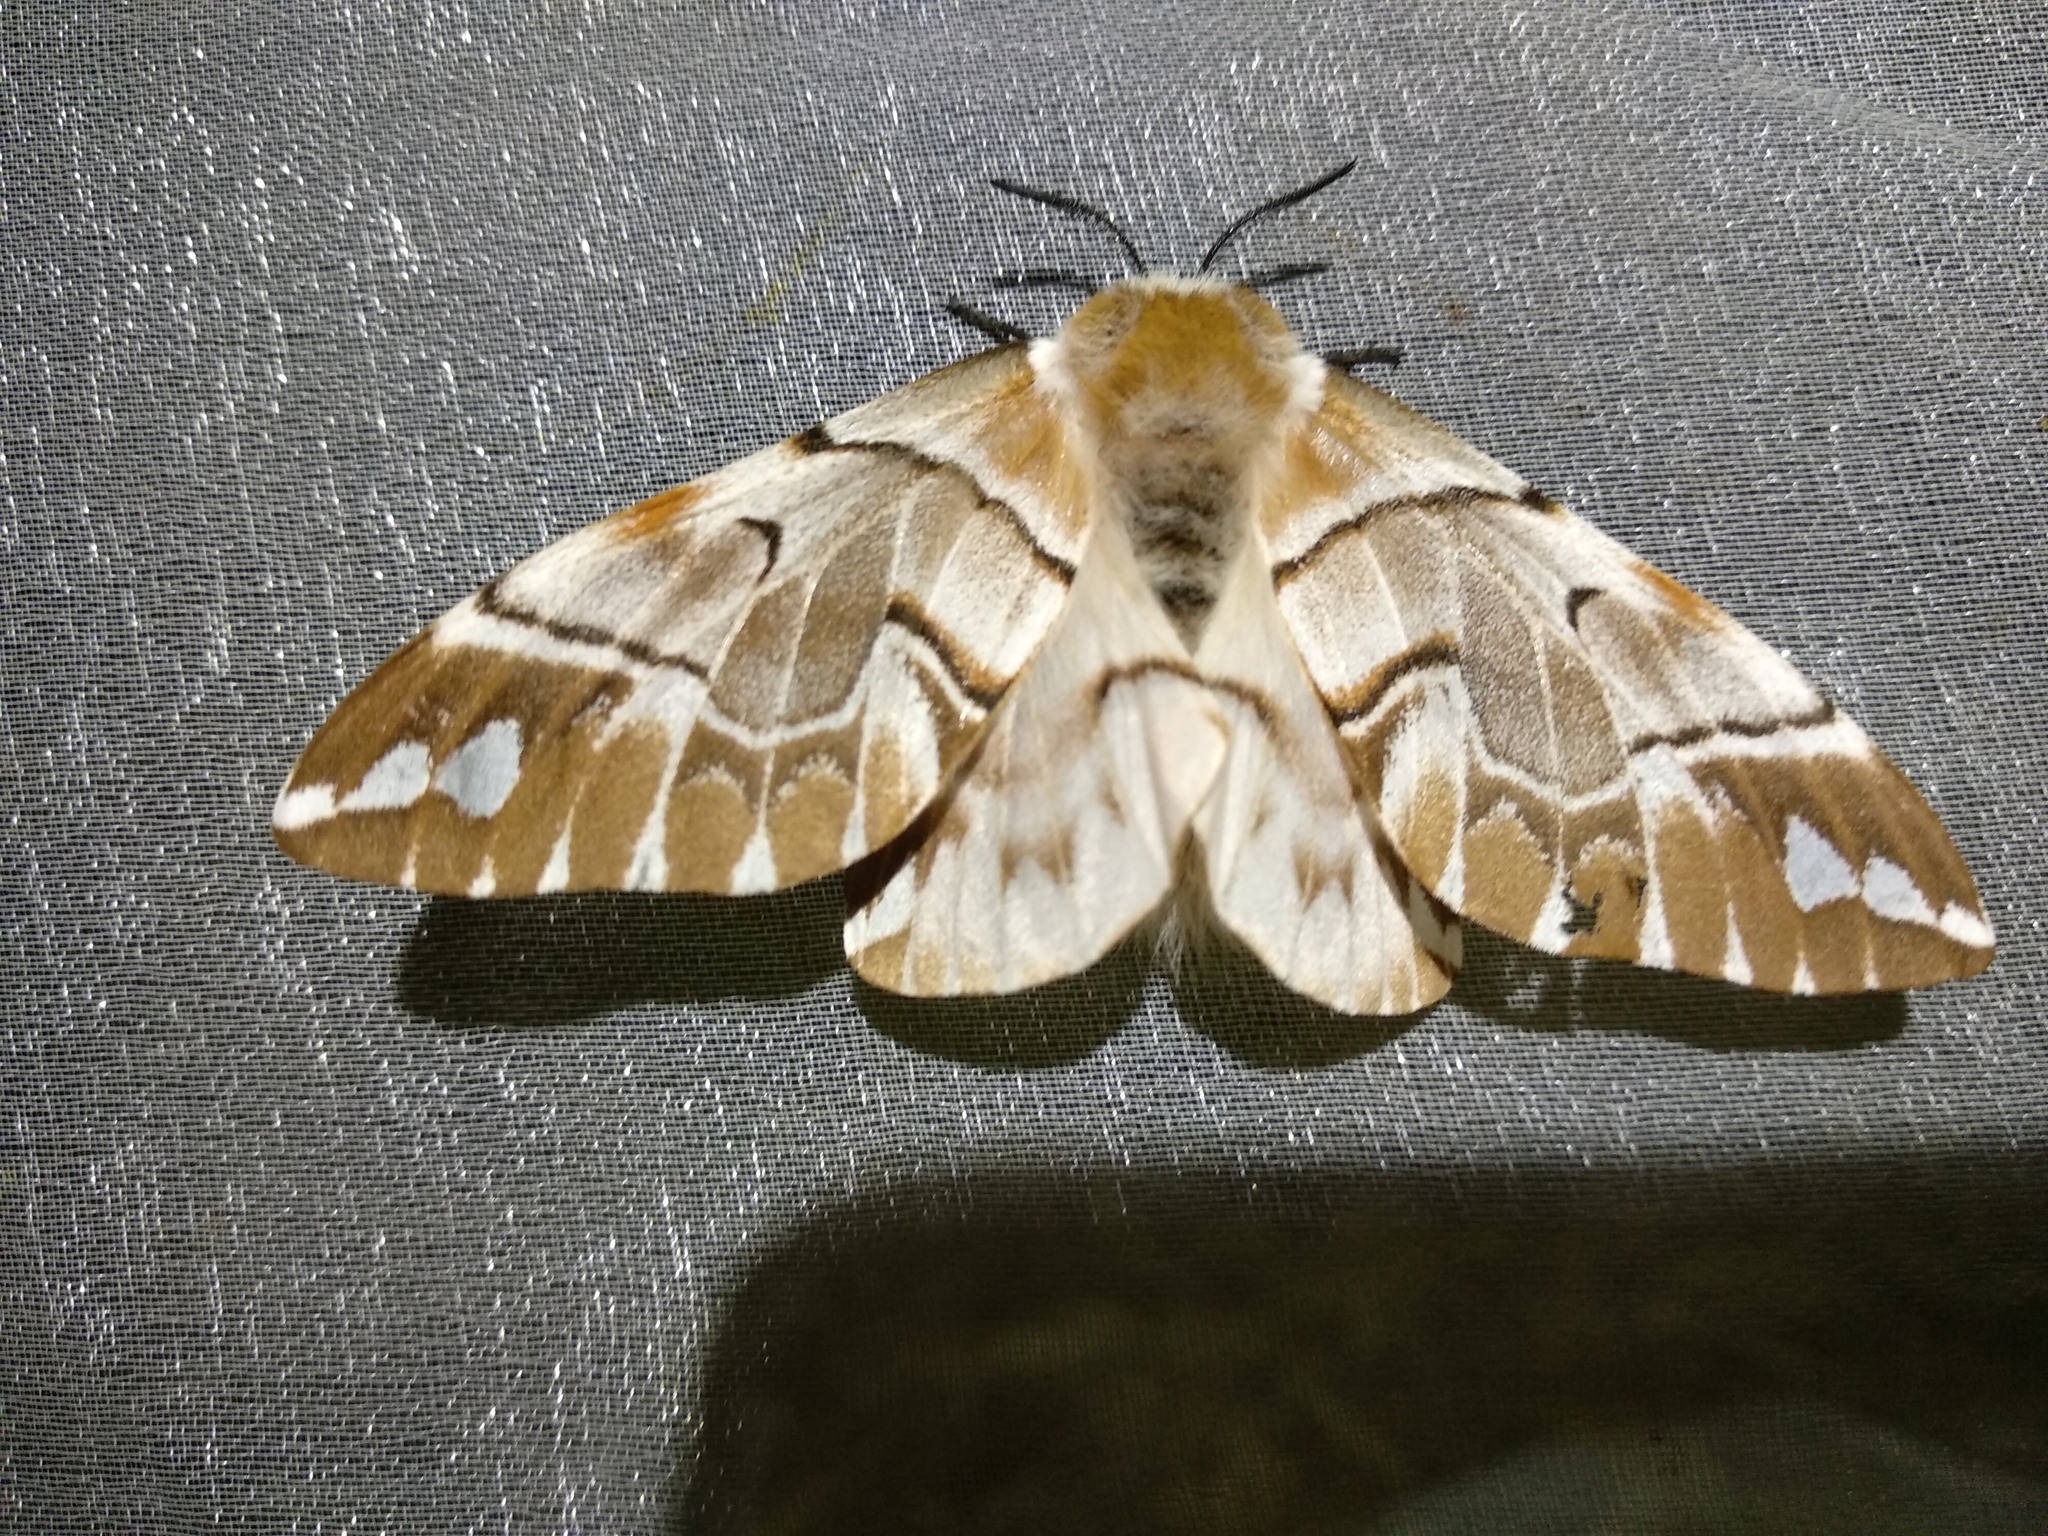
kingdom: Animalia
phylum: Arthropoda
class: Insecta
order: Lepidoptera
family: Endromidae
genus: Endromis
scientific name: Endromis versicolora
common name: Kentish glory
